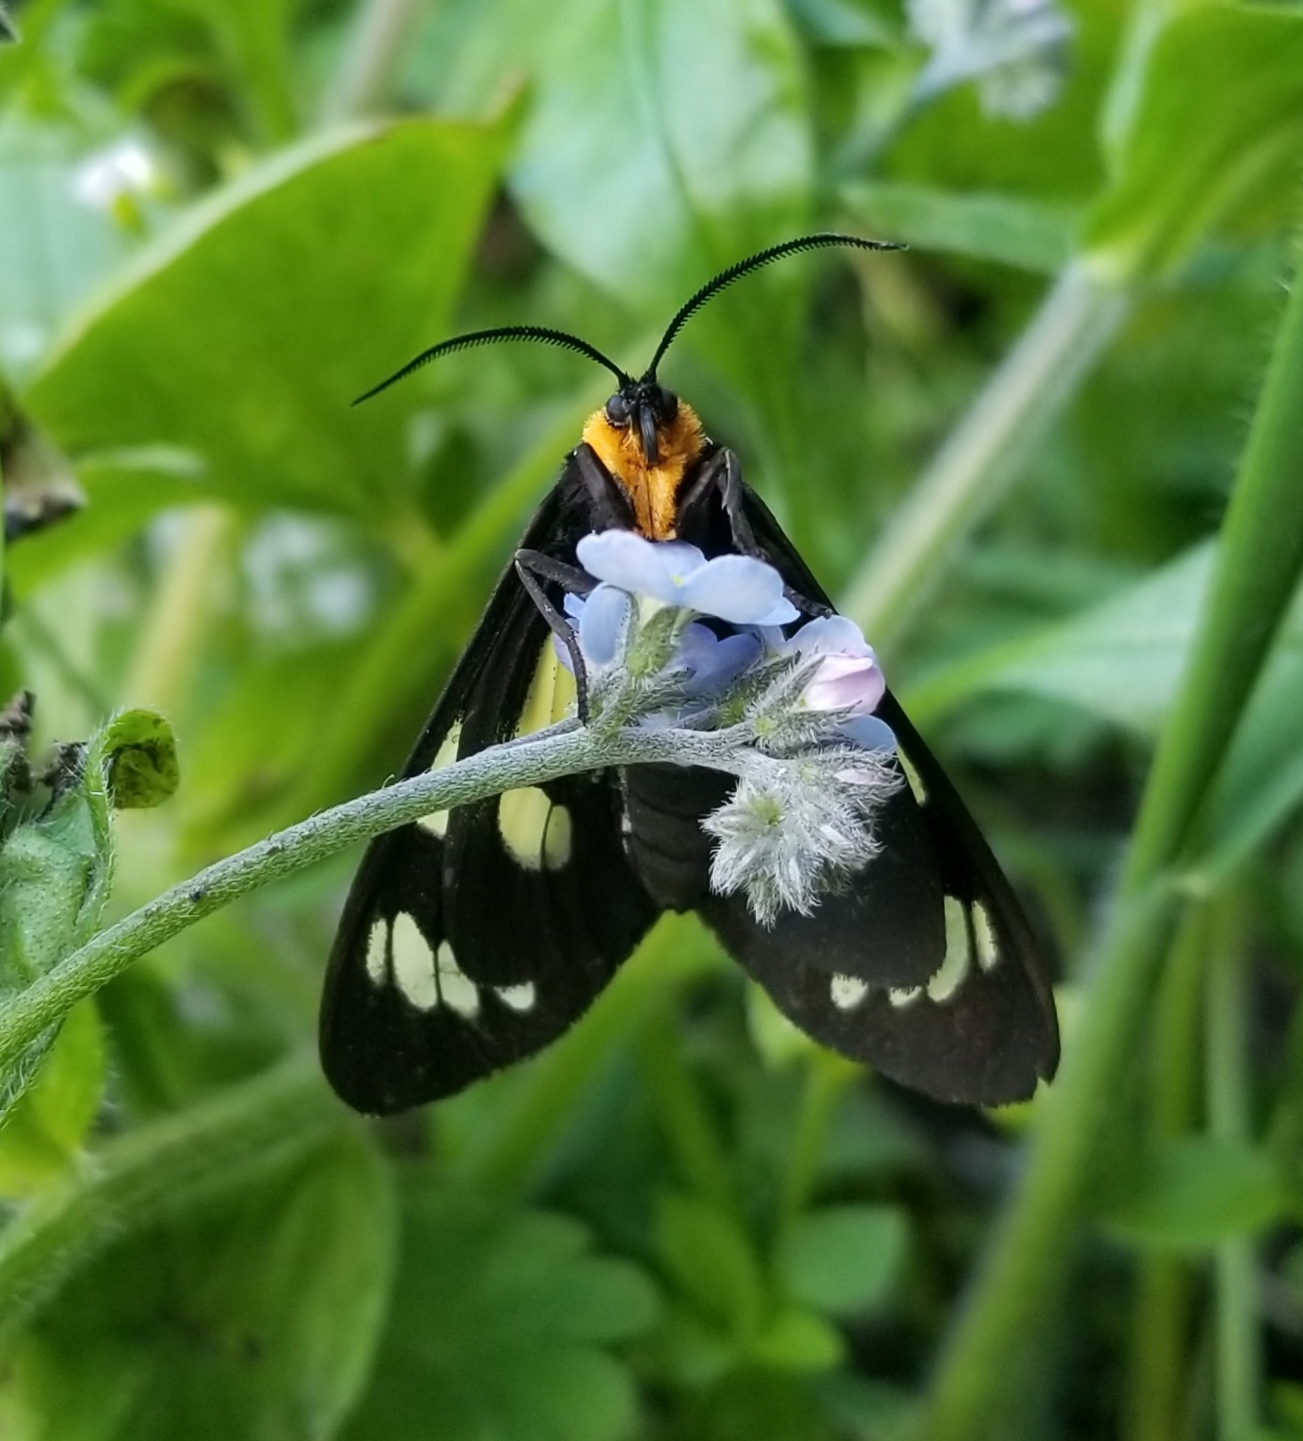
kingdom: Animalia
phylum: Arthropoda
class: Insecta
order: Lepidoptera
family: Erebidae
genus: Gnophaela
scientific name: Gnophaela latipennis
